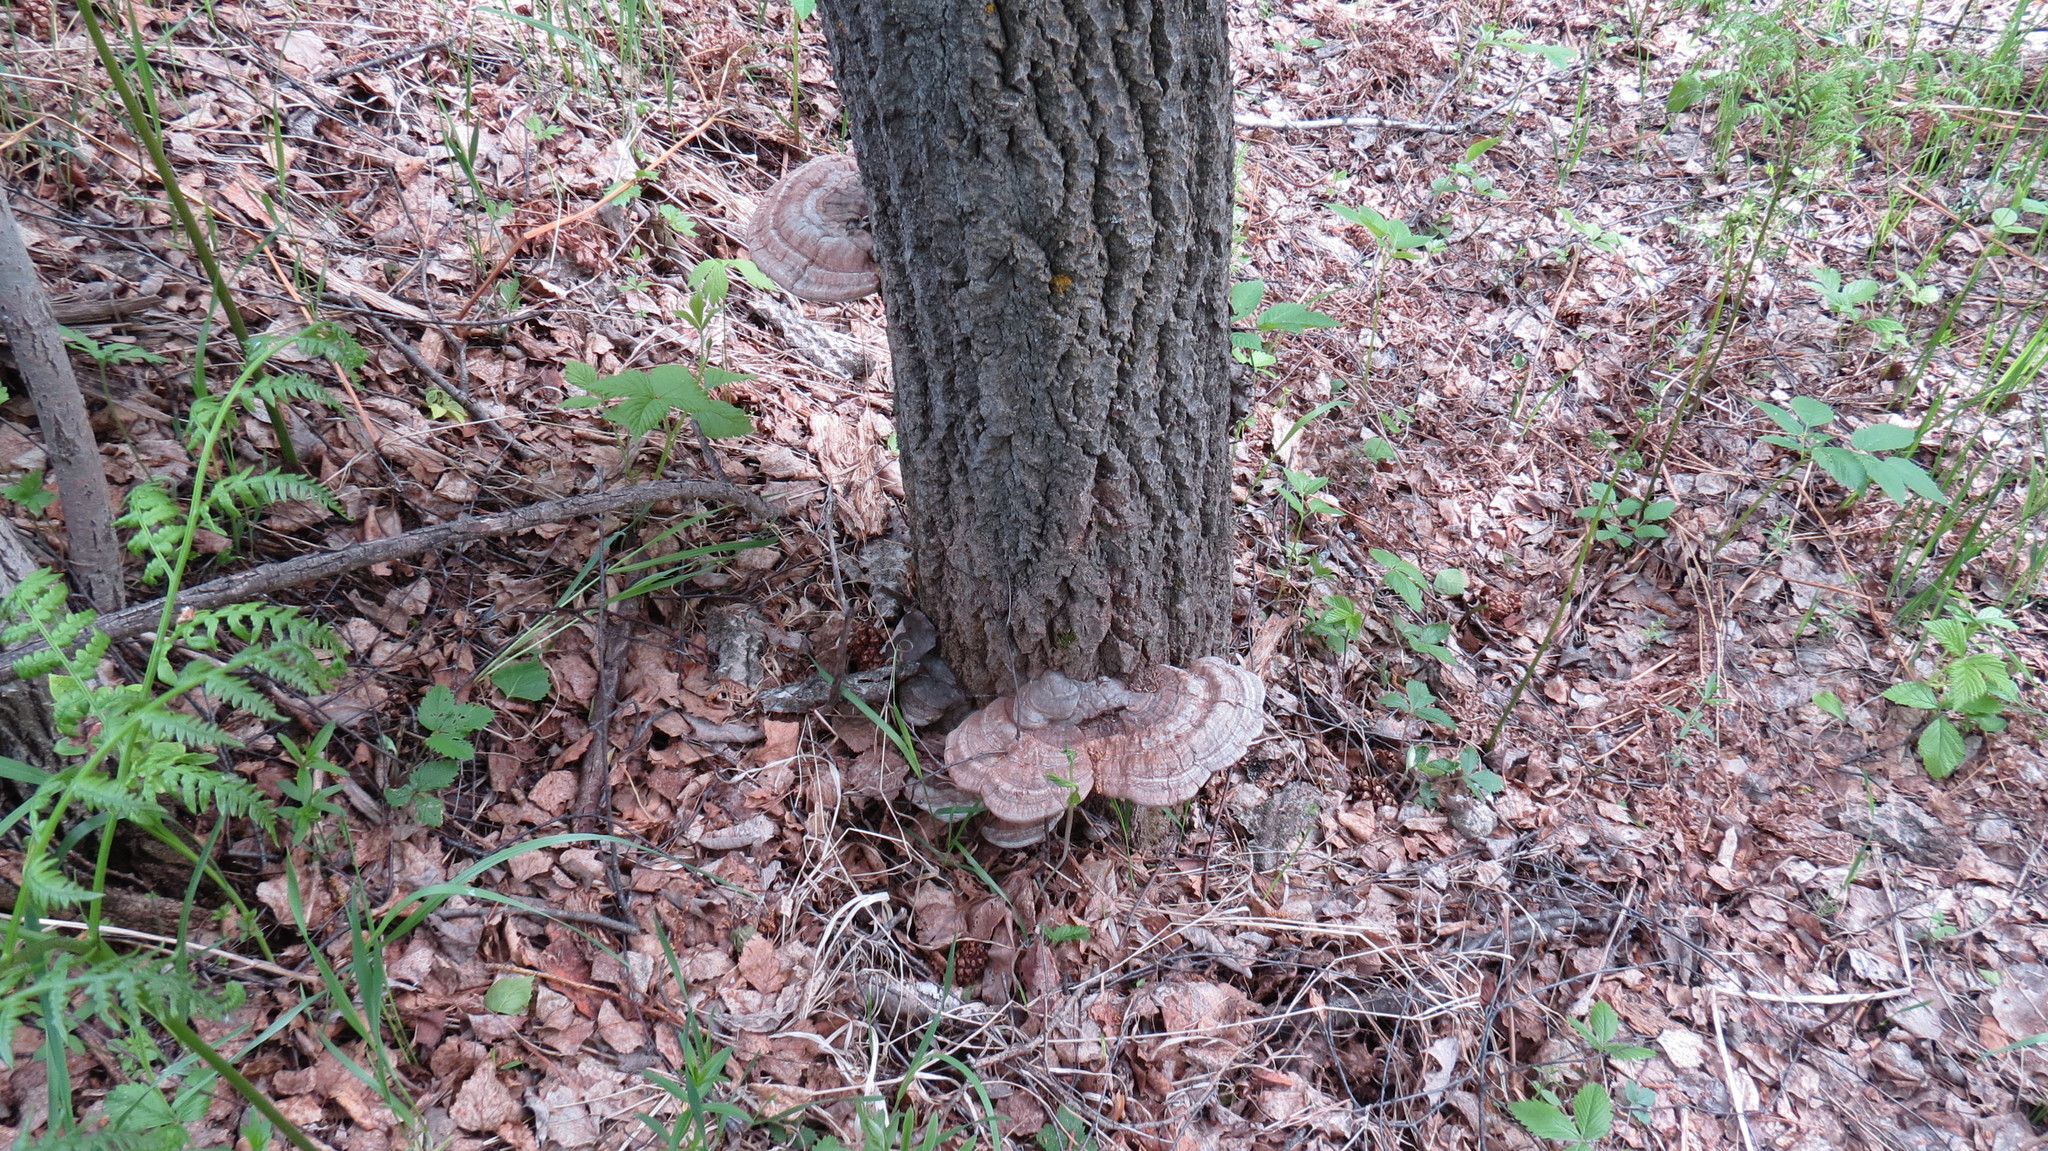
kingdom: Fungi
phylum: Basidiomycota
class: Agaricomycetes
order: Polyporales
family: Polyporaceae
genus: Ganoderma
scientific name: Ganoderma applanatum
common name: Artist's bracket
